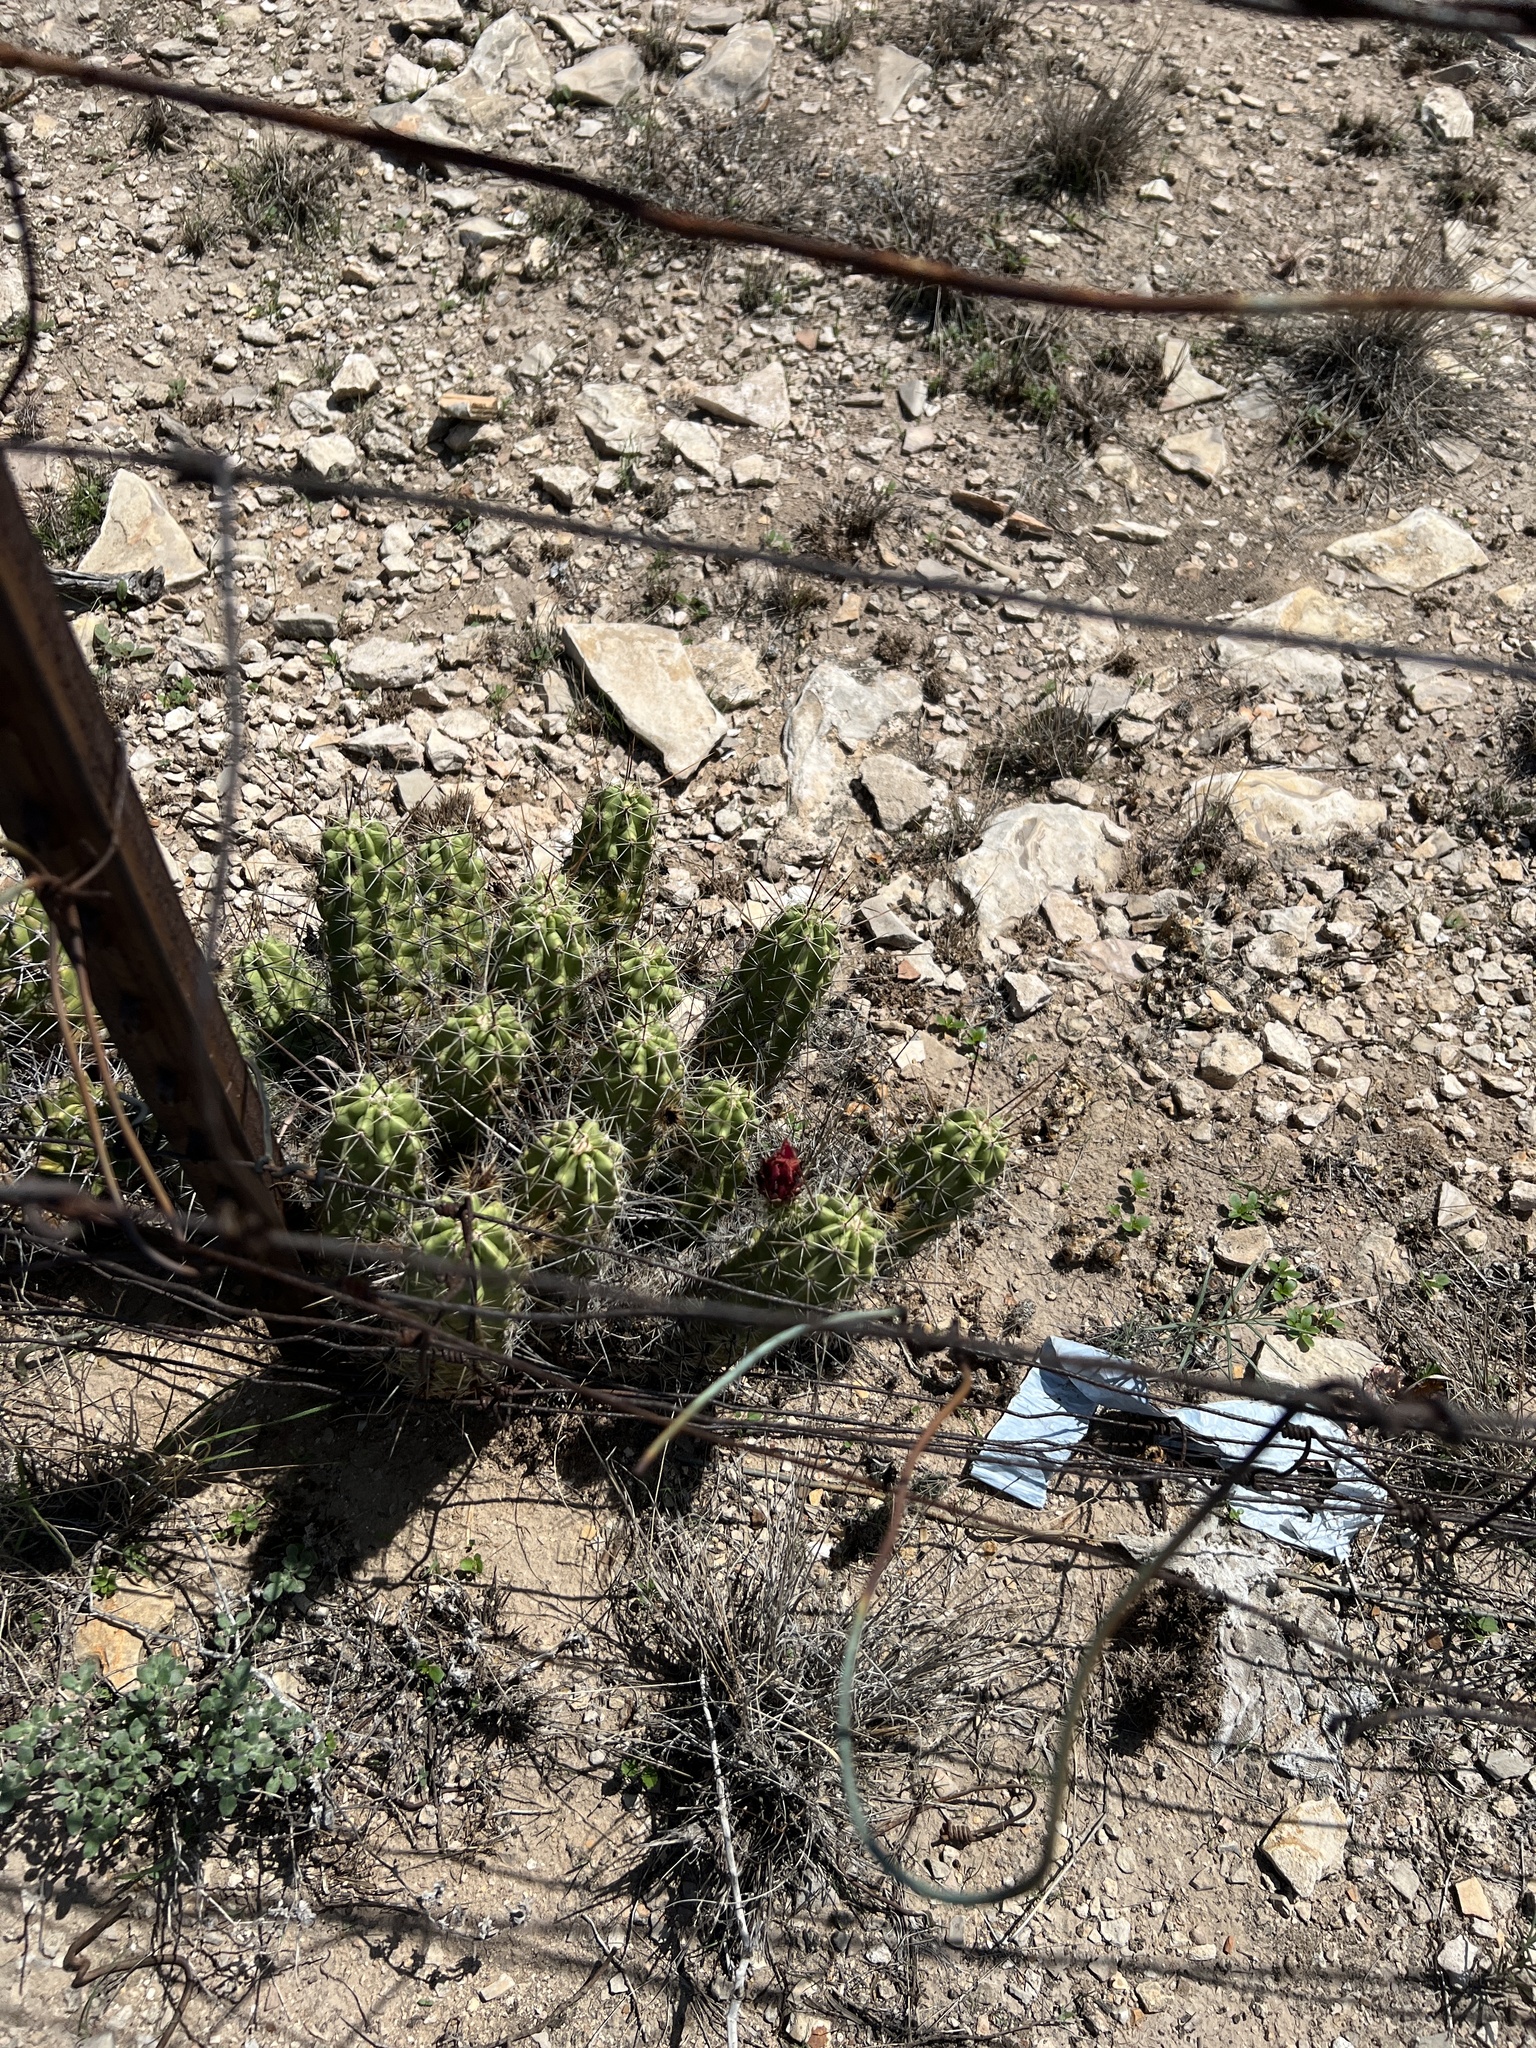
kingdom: Plantae
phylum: Tracheophyta
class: Magnoliopsida
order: Caryophyllales
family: Cactaceae
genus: Echinocereus
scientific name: Echinocereus enneacanthus
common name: Pitaya
